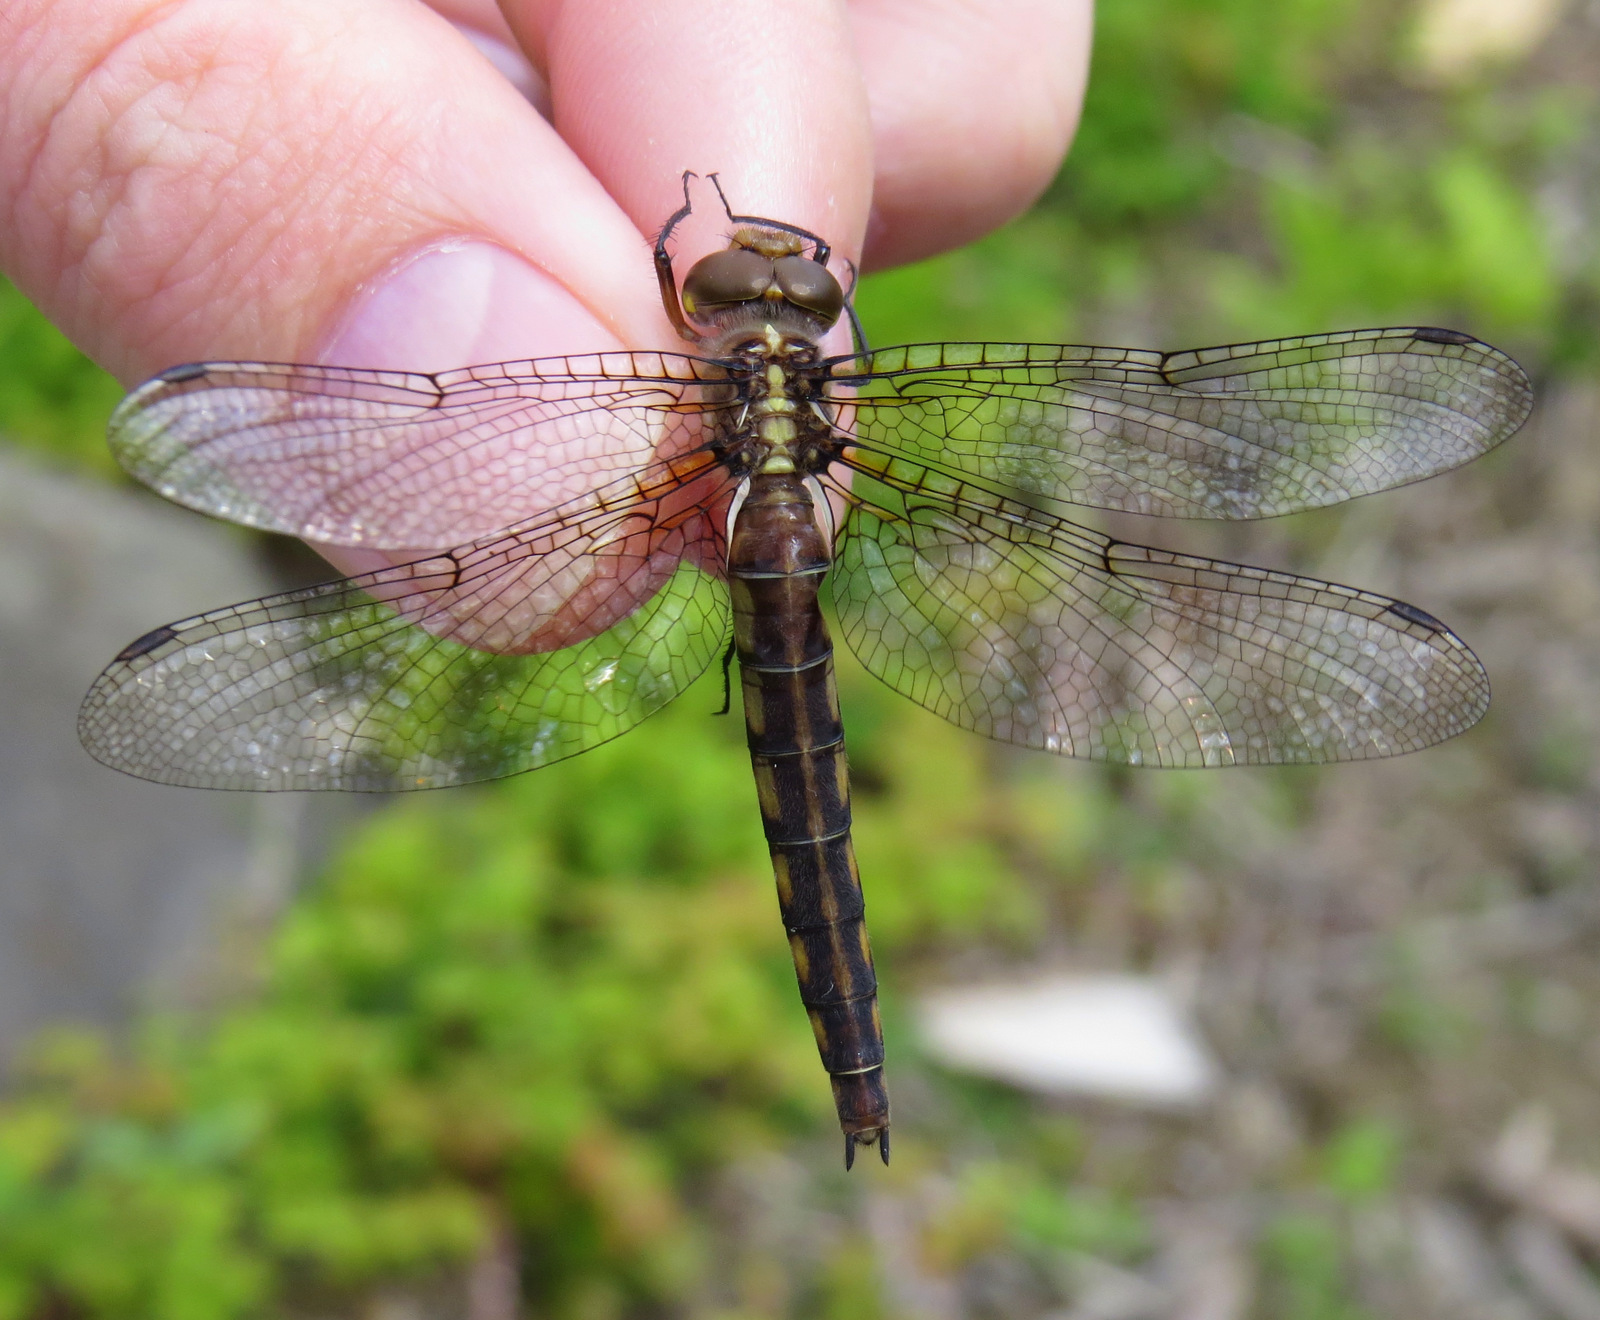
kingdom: Animalia
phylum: Arthropoda
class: Insecta
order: Odonata
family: Corduliidae
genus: Neurocordulia
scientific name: Neurocordulia michaeli
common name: Broad-tailed shadowdragon
